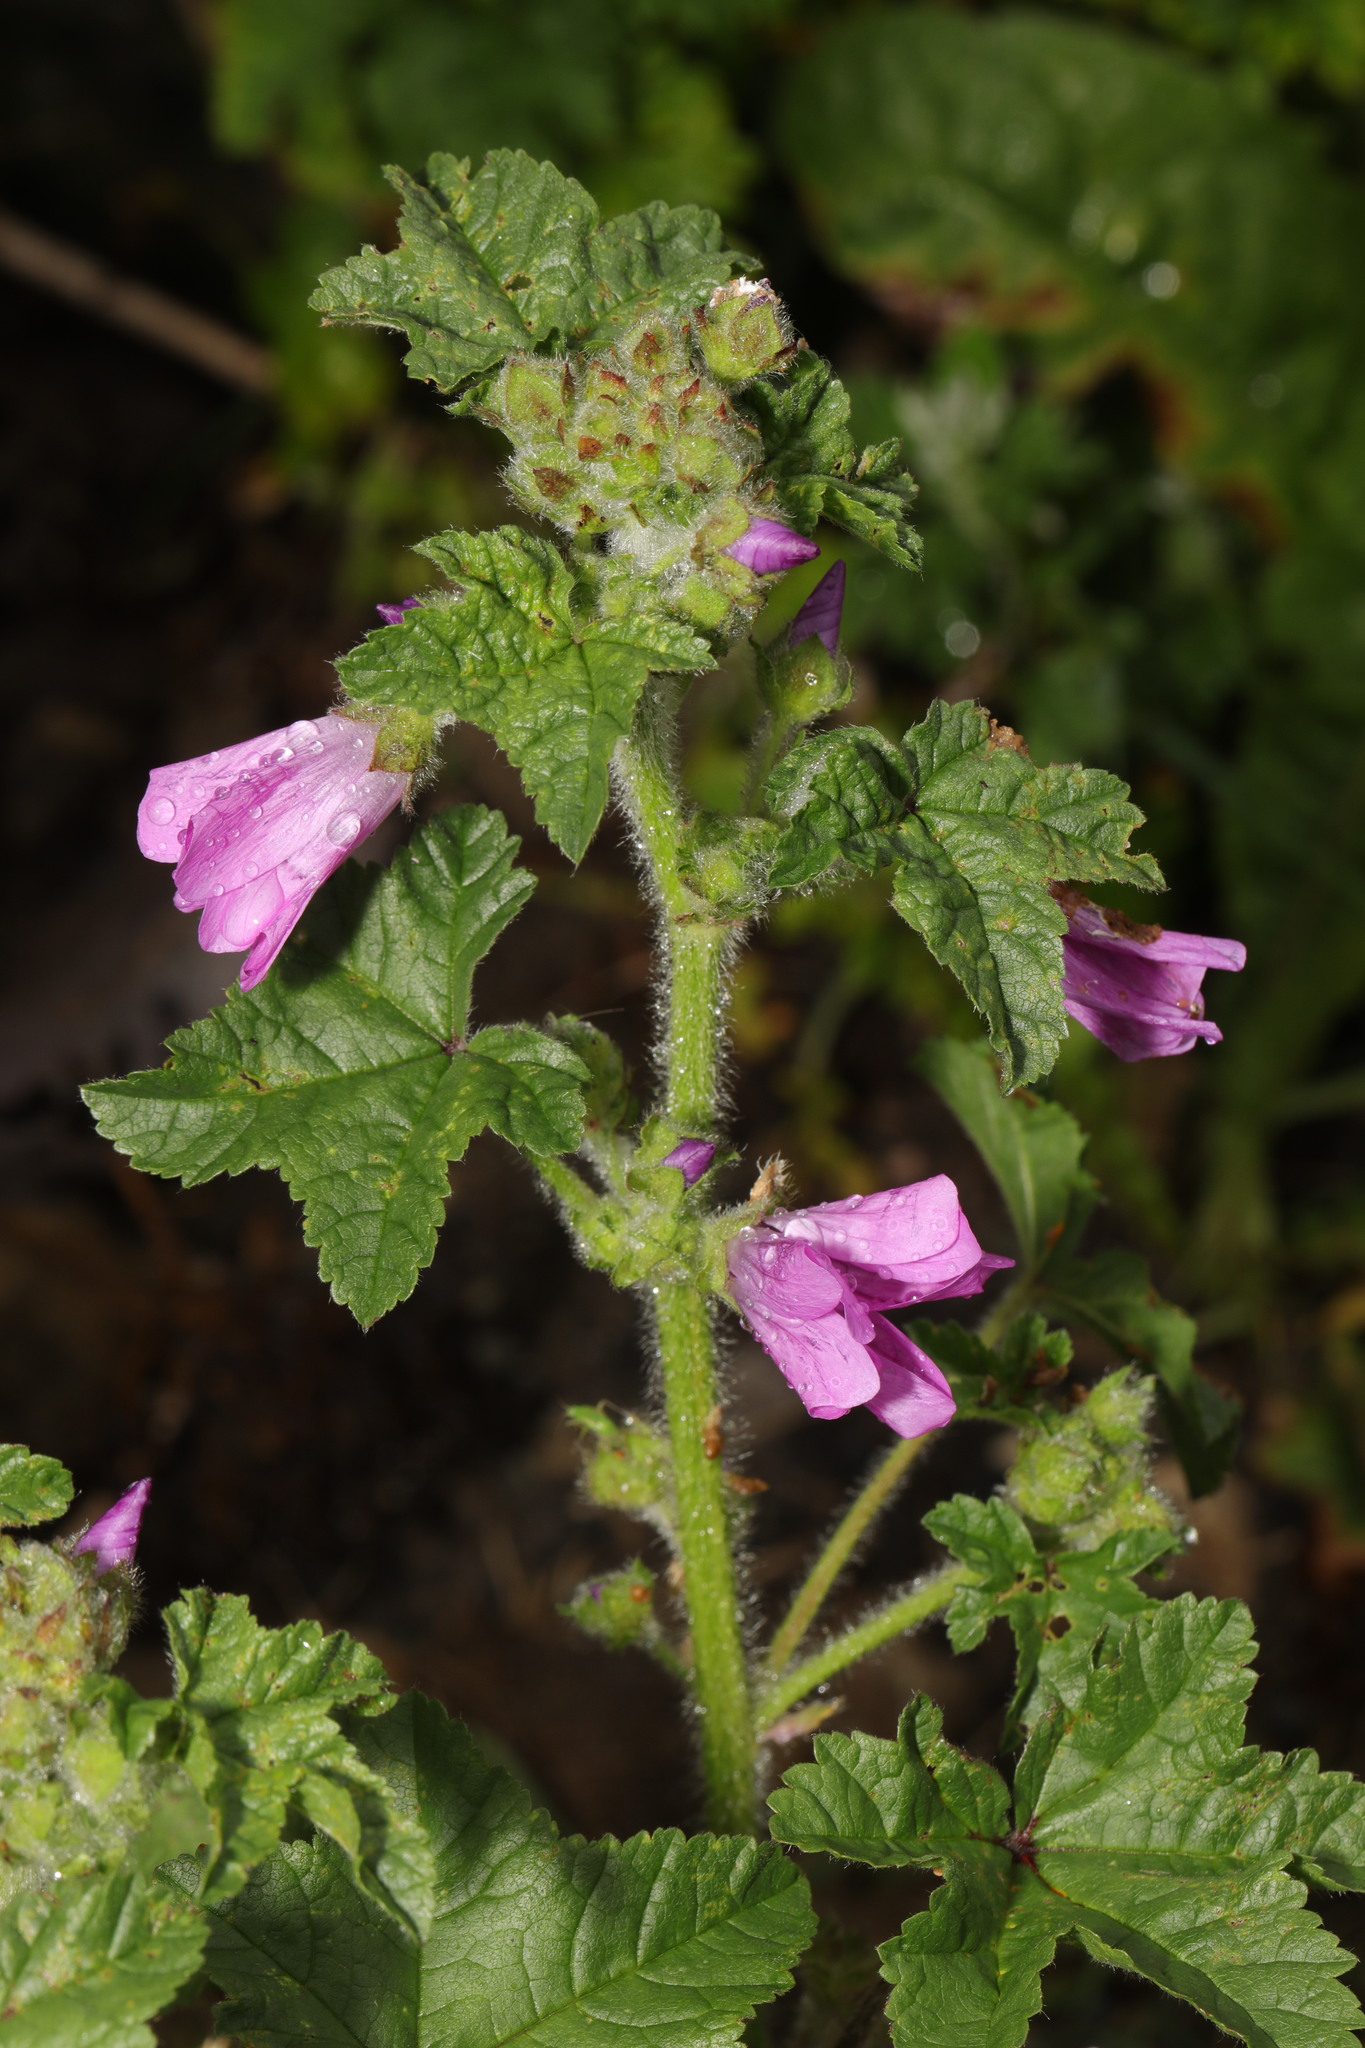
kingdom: Plantae
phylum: Tracheophyta
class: Magnoliopsida
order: Malvales
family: Malvaceae
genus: Malva
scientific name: Malva sylvestris
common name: Common mallow
